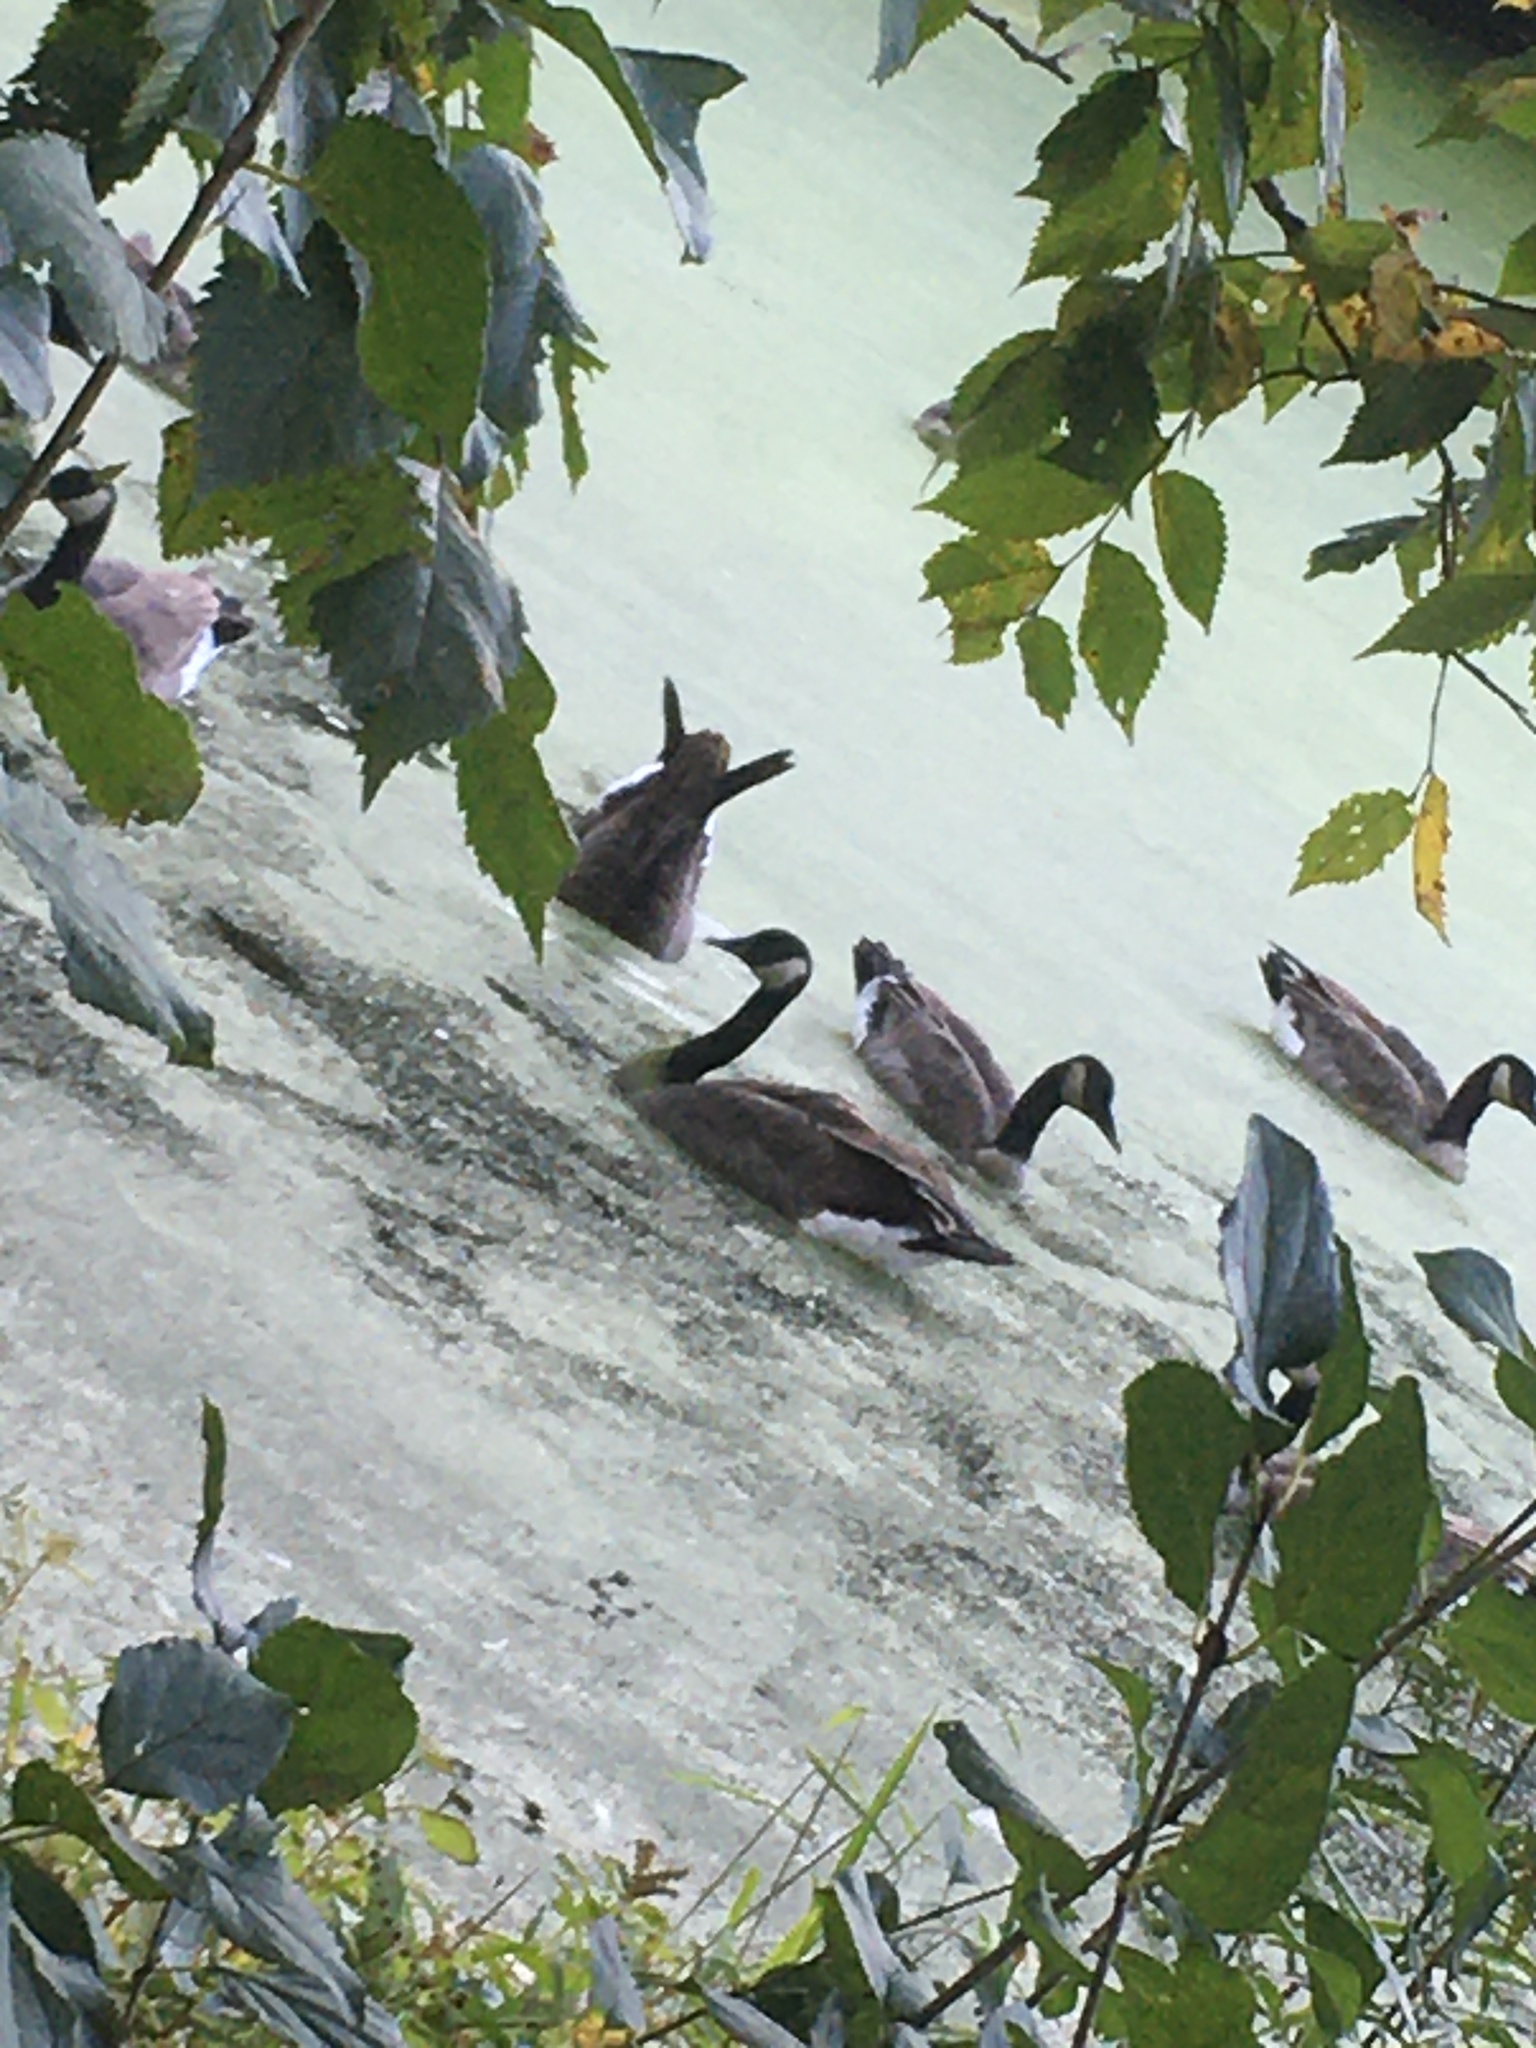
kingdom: Animalia
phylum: Chordata
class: Aves
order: Anseriformes
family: Anatidae
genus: Branta
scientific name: Branta canadensis
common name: Canada goose
